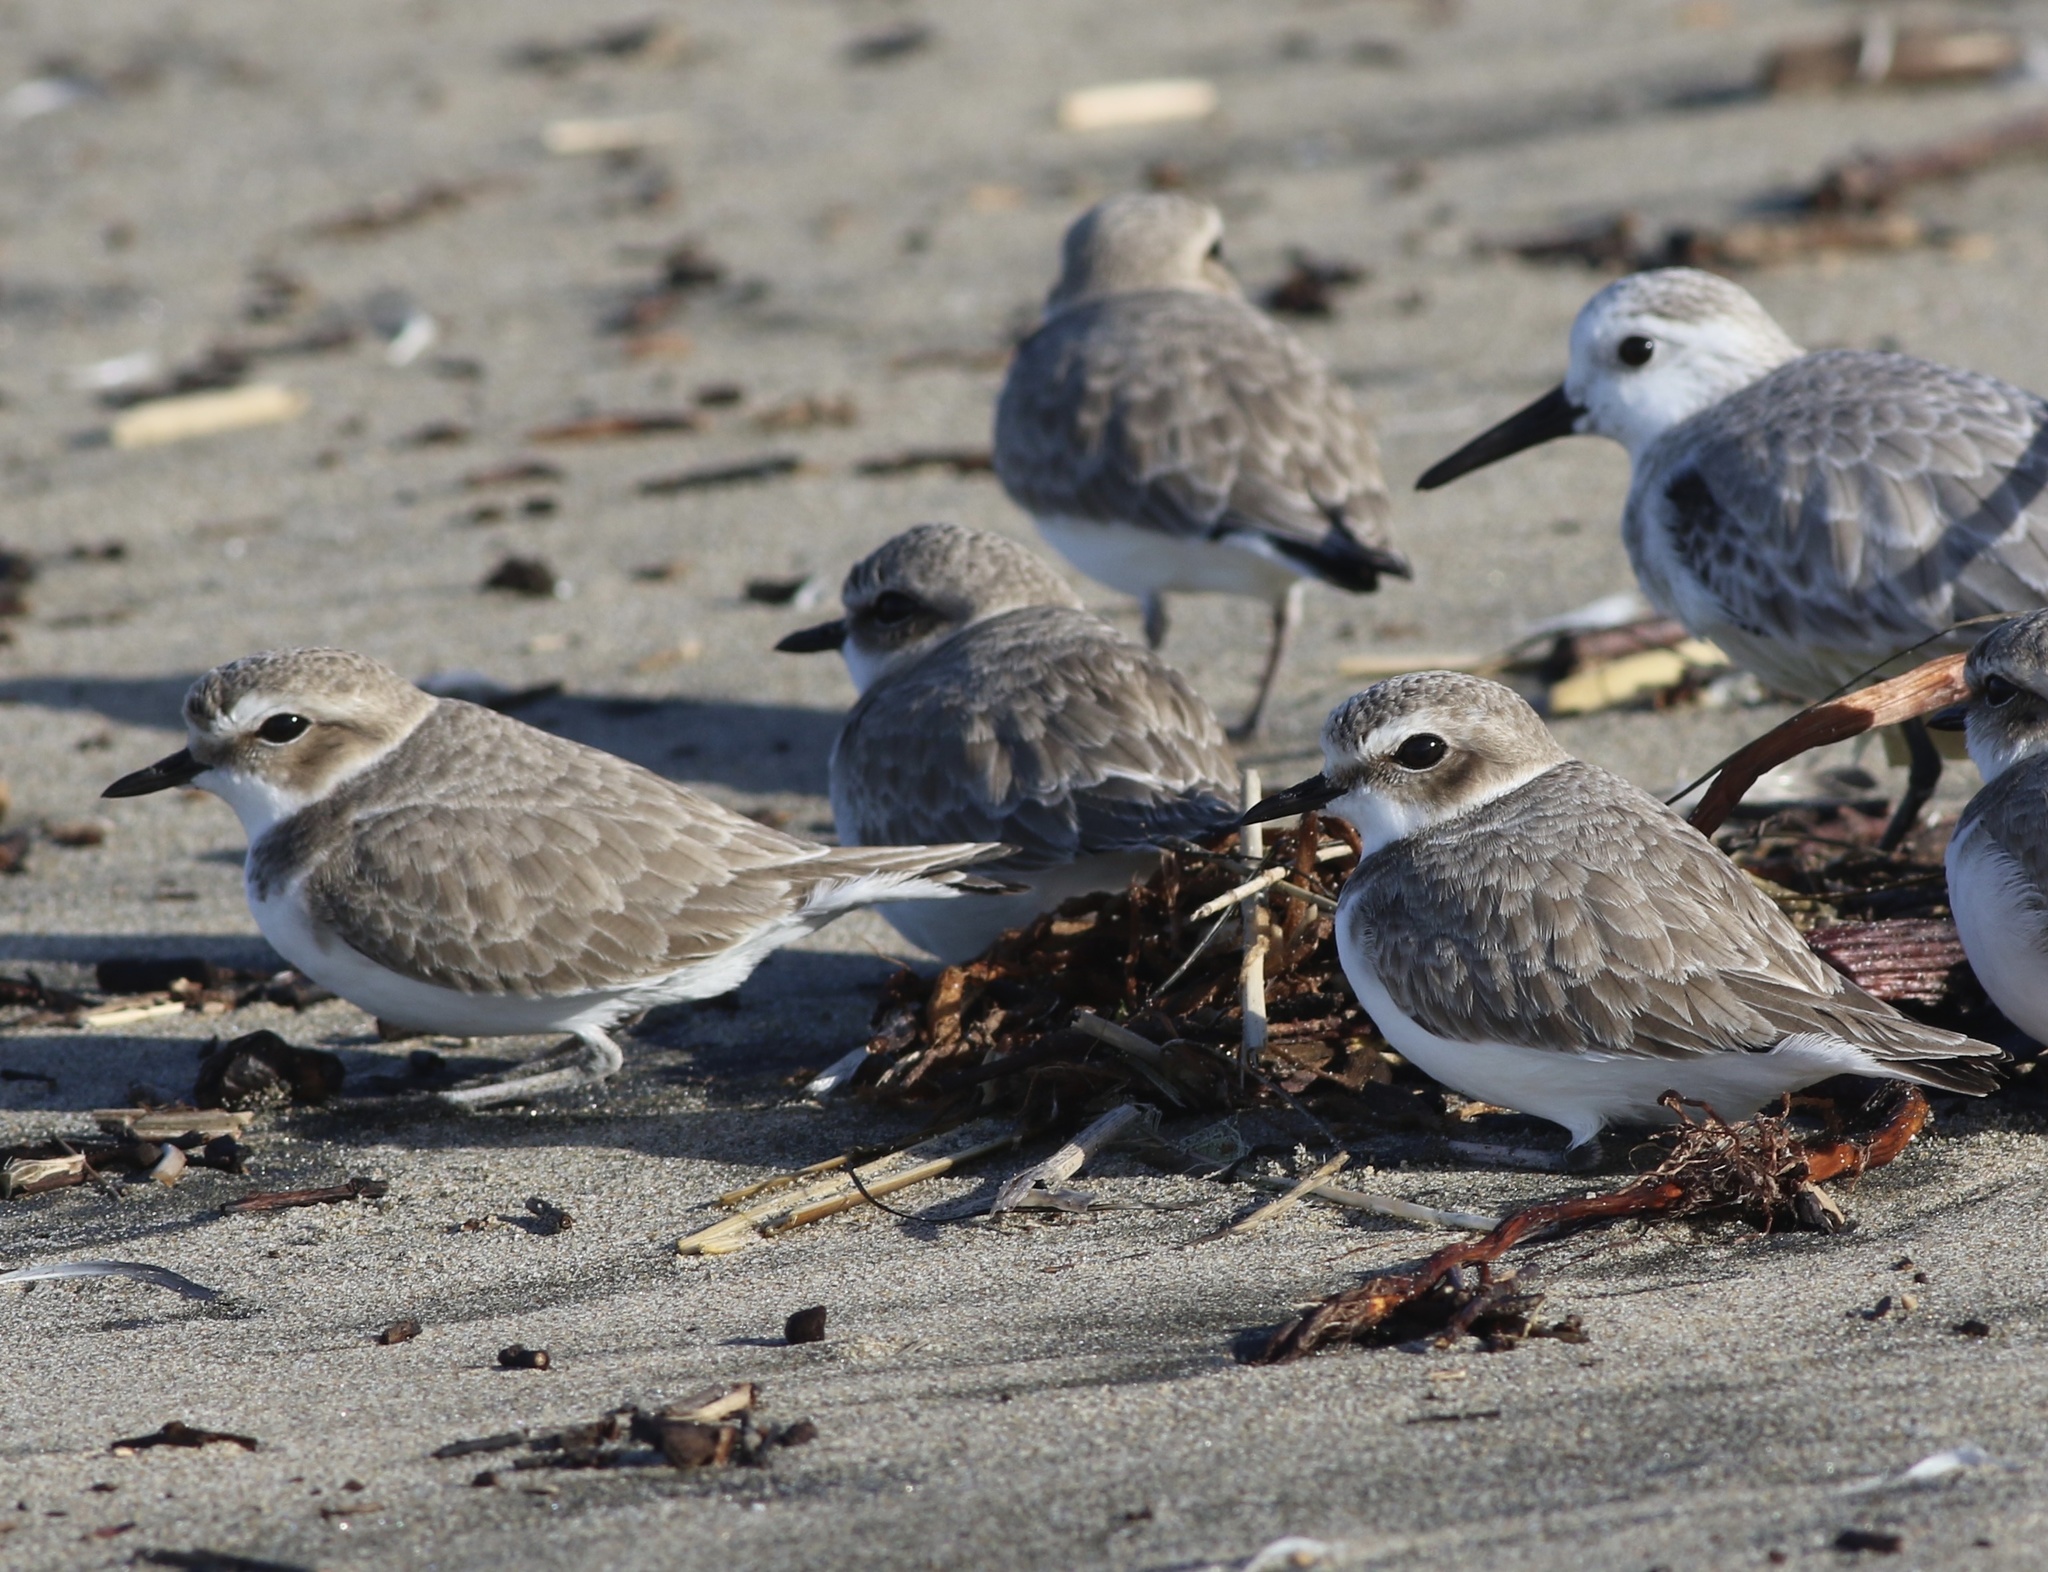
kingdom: Animalia
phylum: Chordata
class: Aves
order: Charadriiformes
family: Charadriidae
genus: Anarhynchus
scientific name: Anarhynchus
